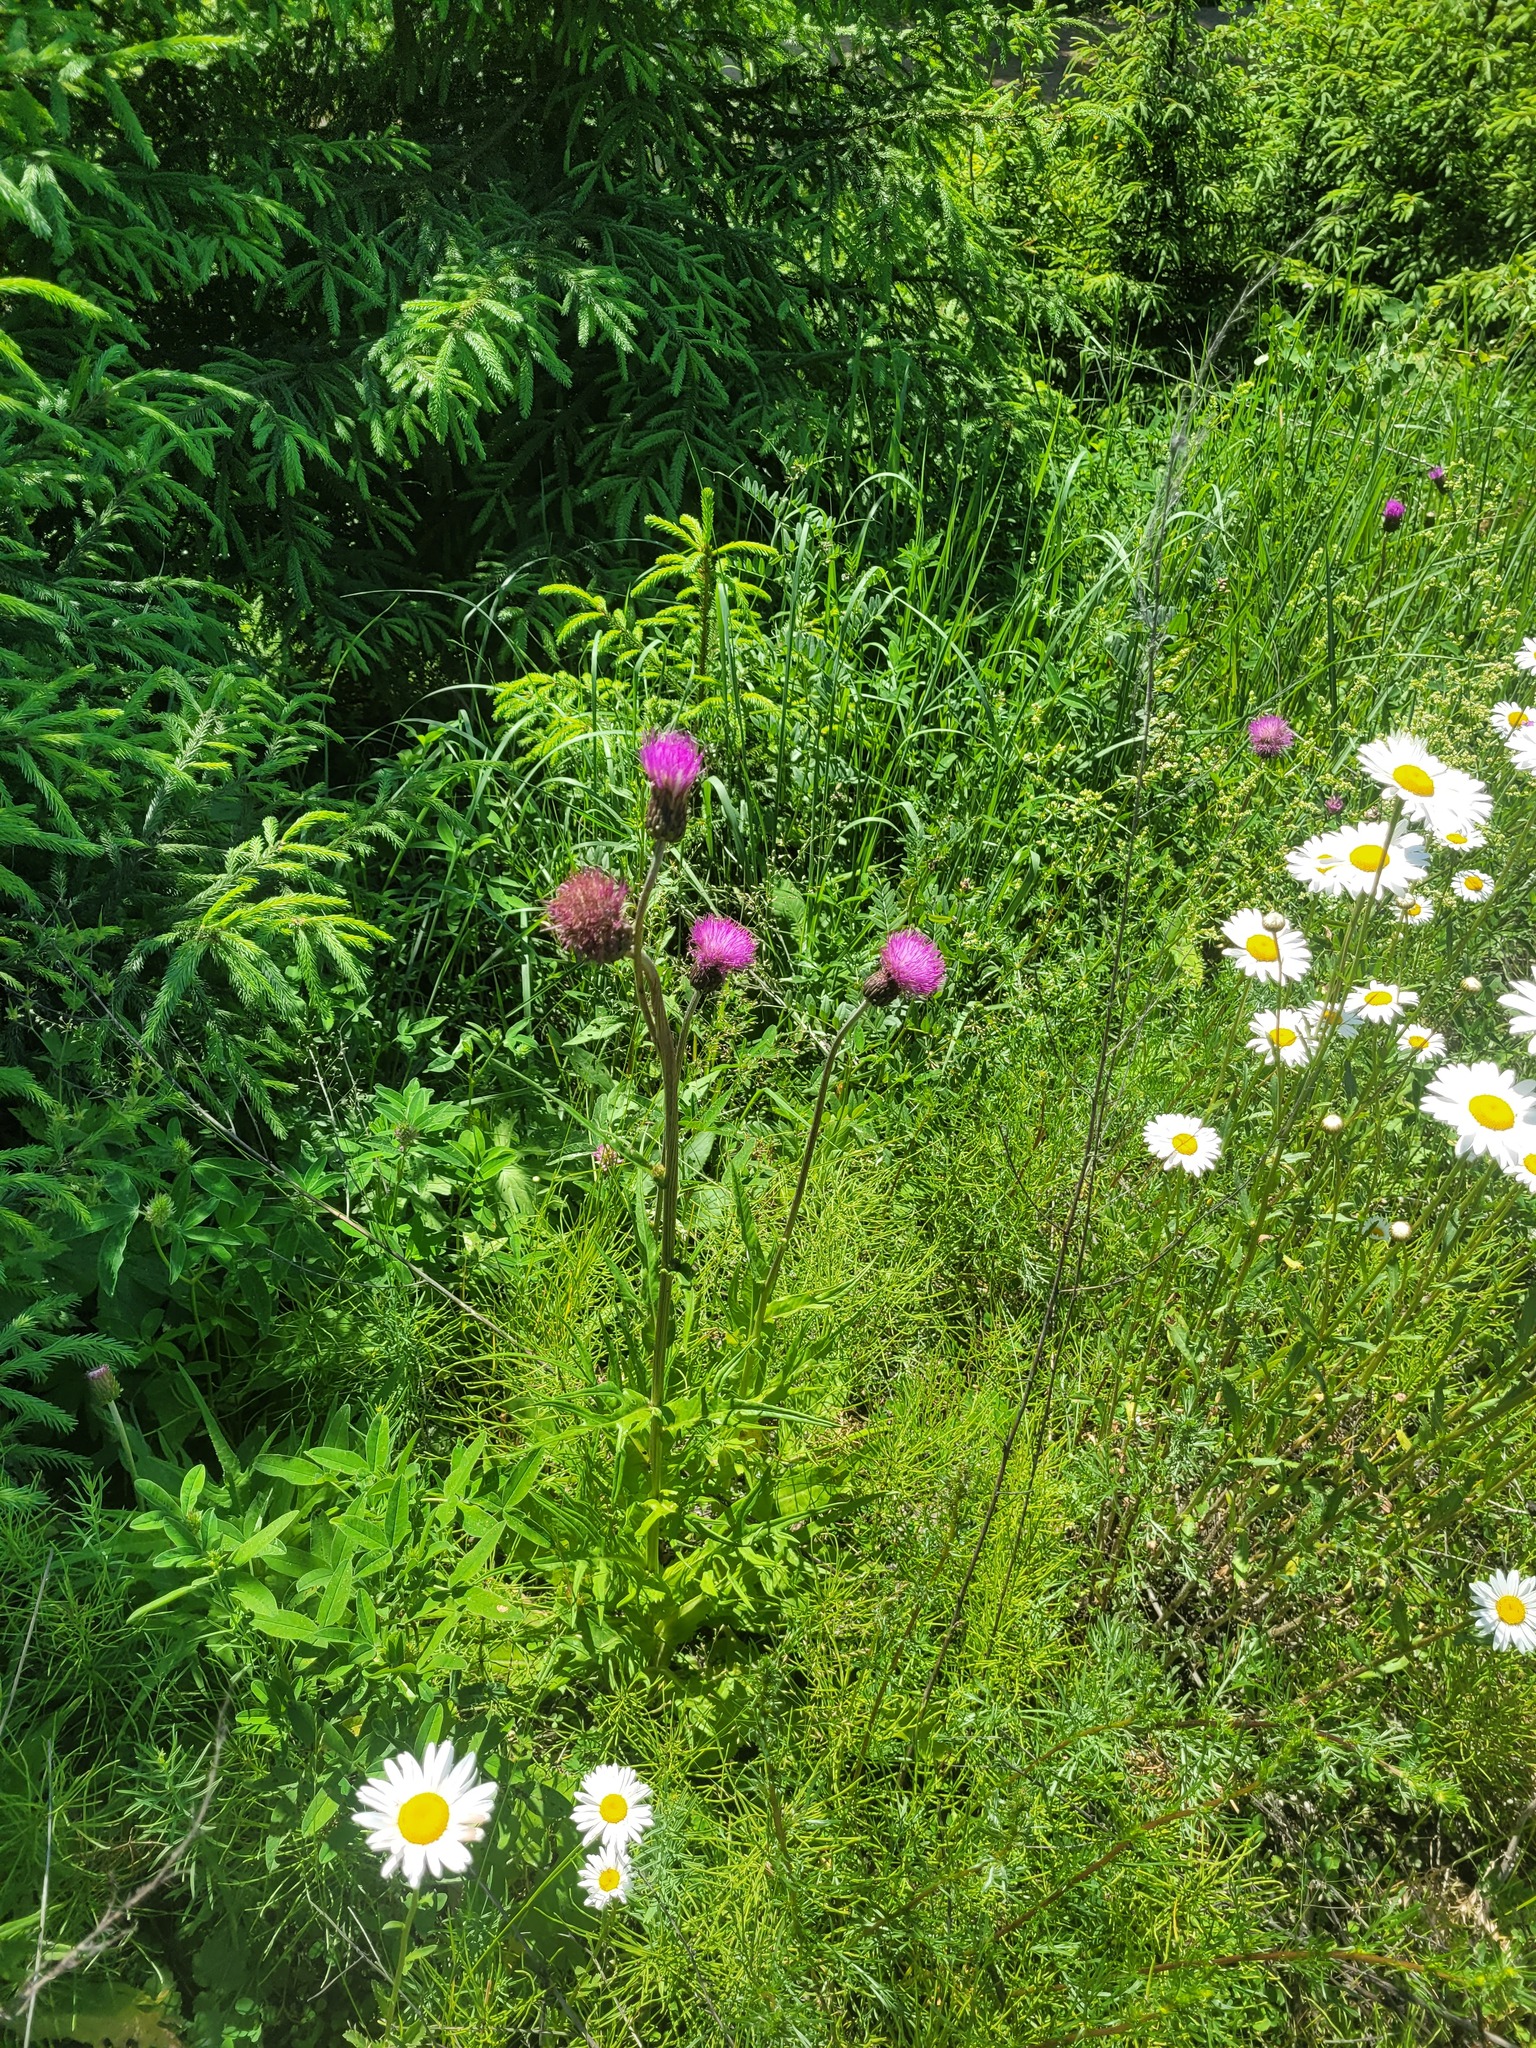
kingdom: Plantae
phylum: Tracheophyta
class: Magnoliopsida
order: Asterales
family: Asteraceae
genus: Cirsium
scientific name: Cirsium heterophyllum
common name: Melancholy thistle
